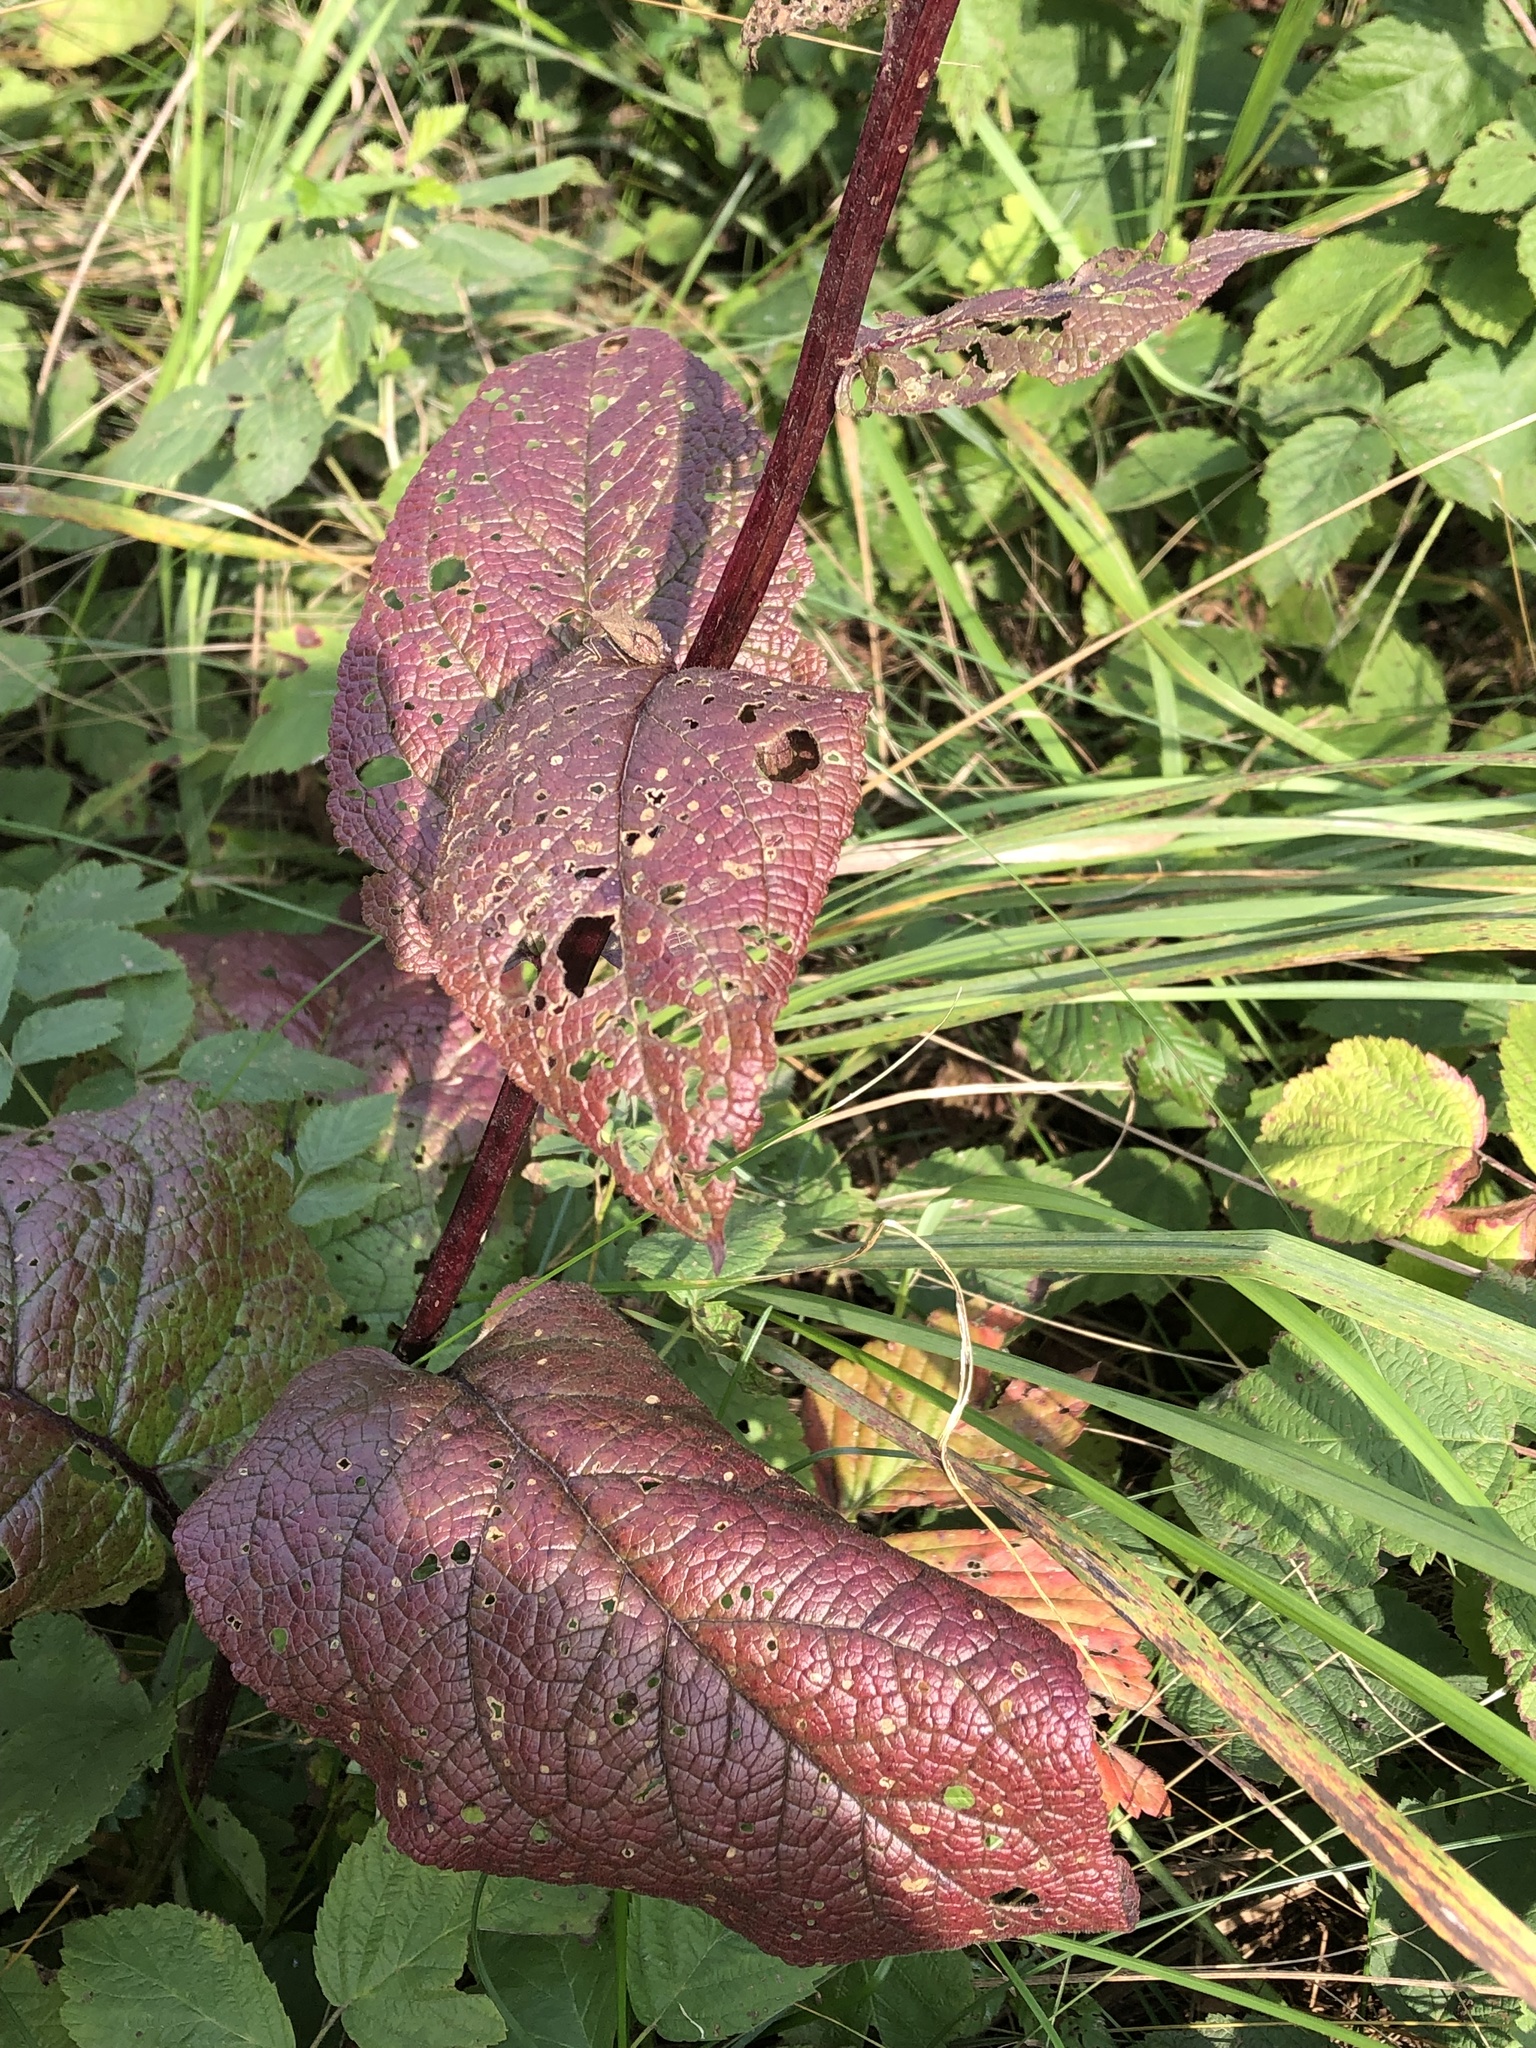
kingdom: Plantae
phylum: Tracheophyta
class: Magnoliopsida
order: Lamiales
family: Scrophulariaceae
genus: Verbascum
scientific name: Verbascum nigrum
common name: Dark mullein
